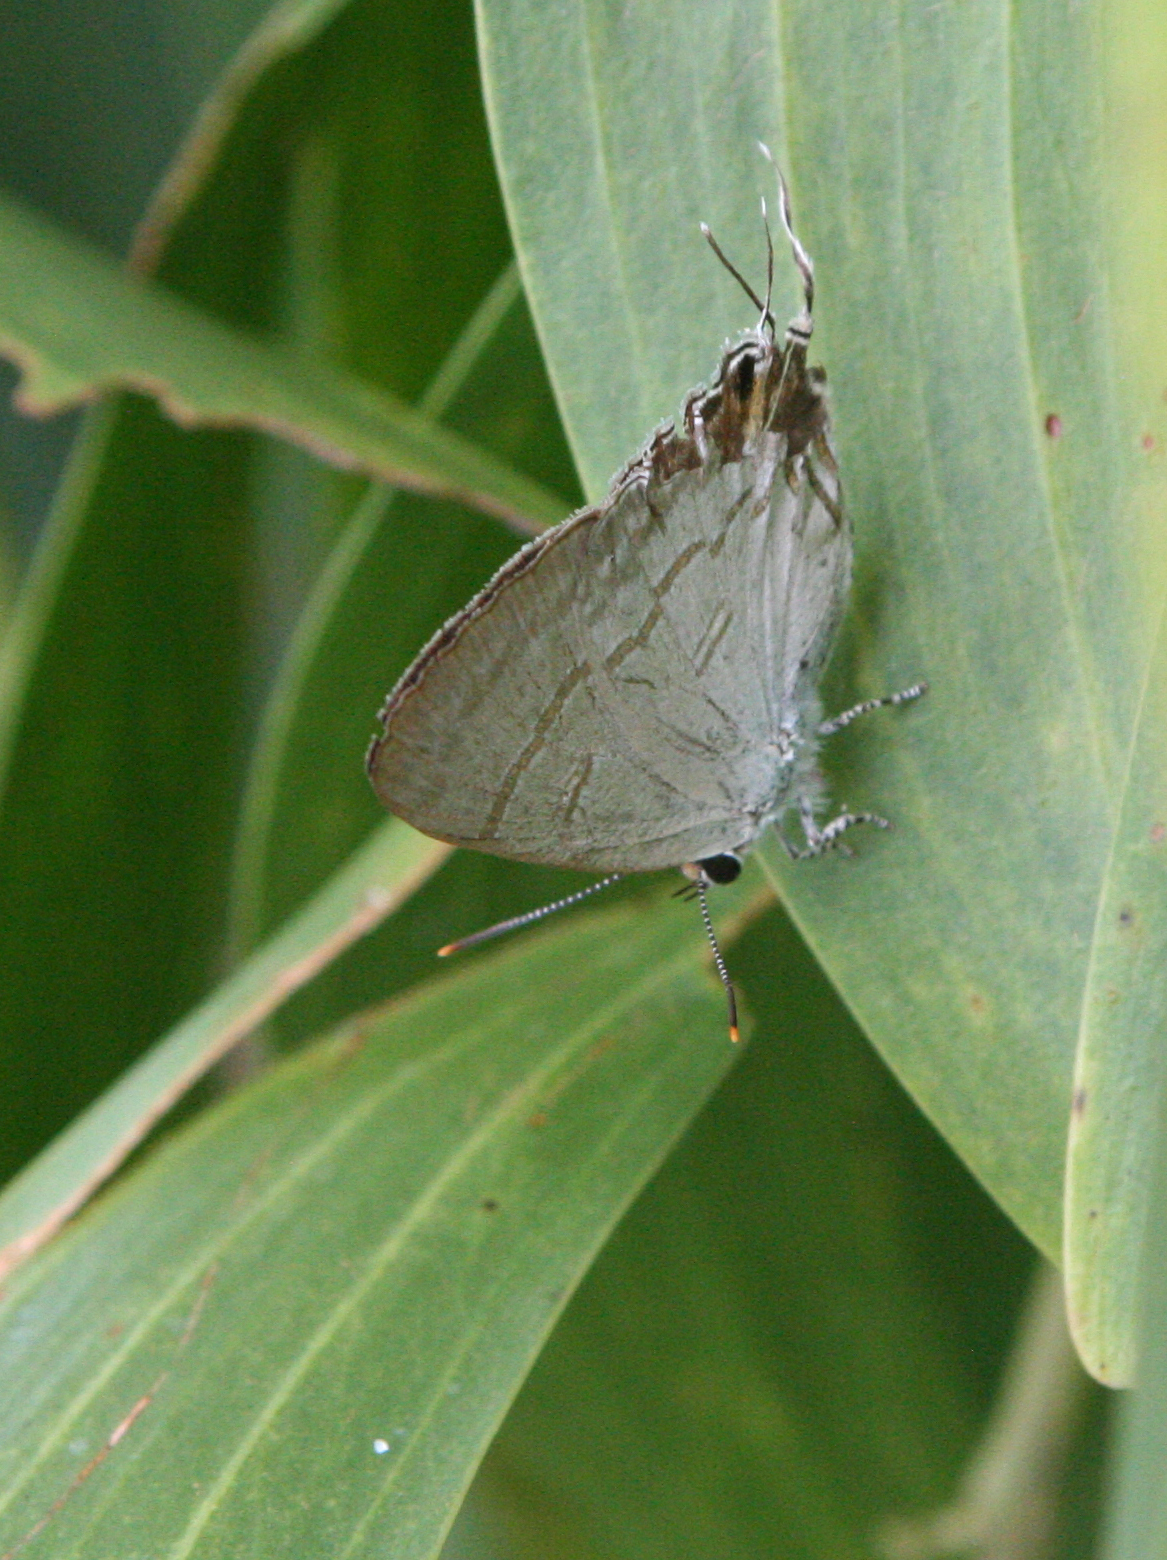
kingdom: Animalia
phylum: Arthropoda
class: Insecta
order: Lepidoptera
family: Lycaenidae
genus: Hypolycaena
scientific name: Hypolycaena erylus
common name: Common tit
